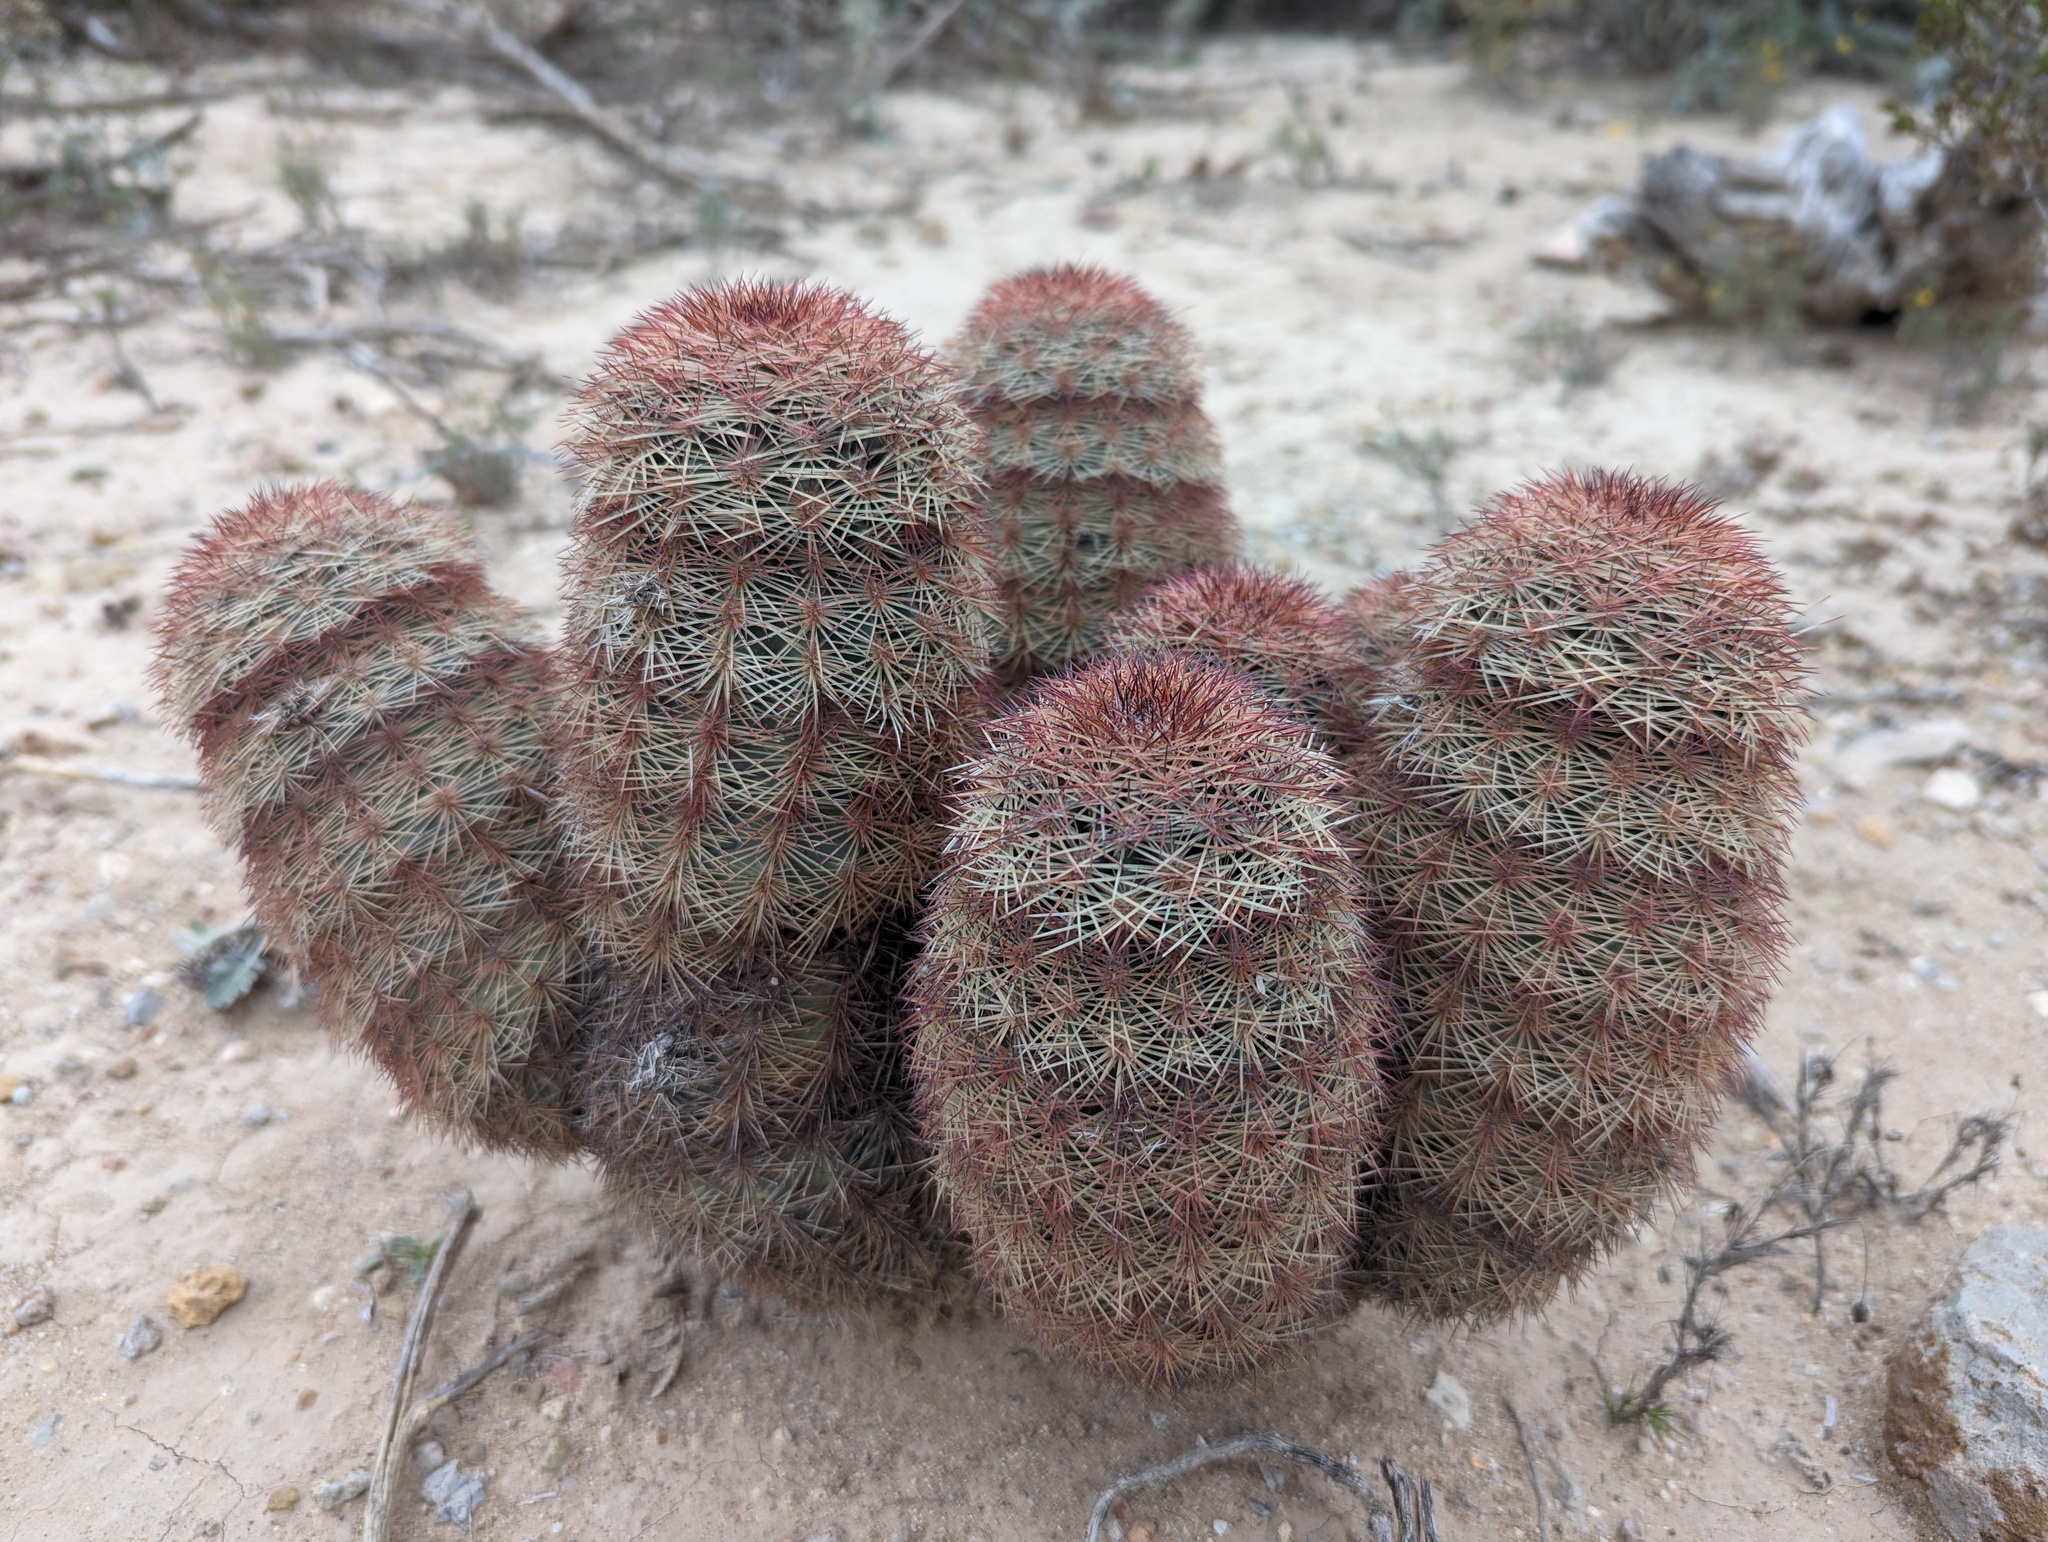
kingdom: Plantae
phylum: Tracheophyta
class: Magnoliopsida
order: Caryophyllales
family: Cactaceae
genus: Echinocereus
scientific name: Echinocereus dasyacanthus
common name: Spiny hedgehog cactus
